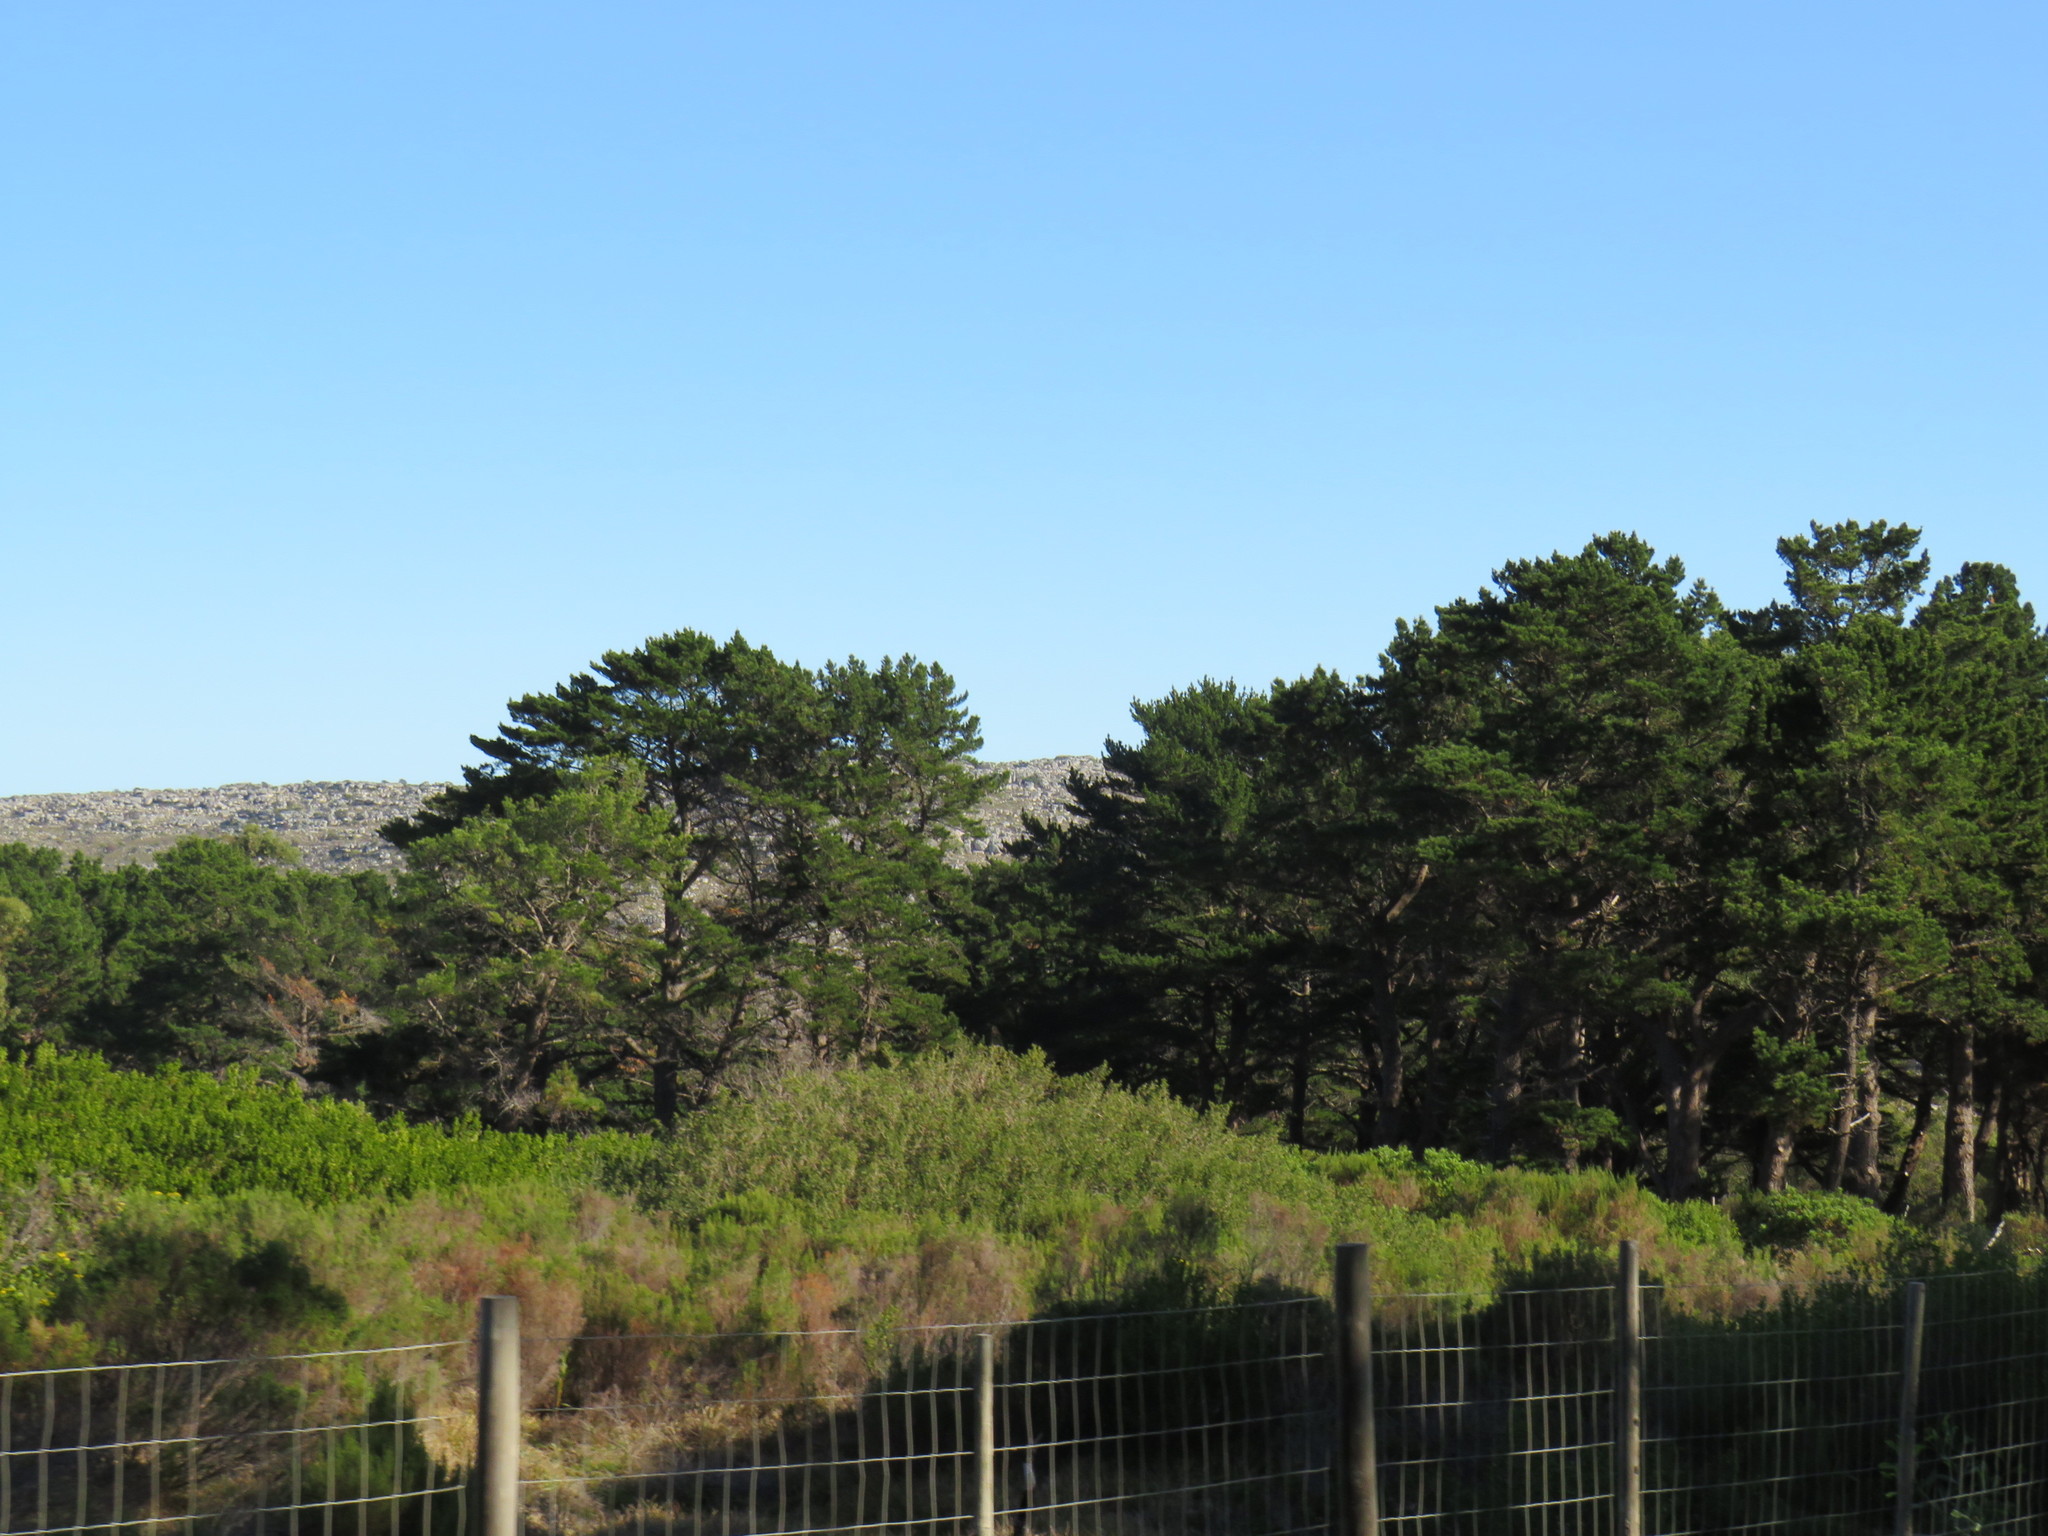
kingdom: Plantae
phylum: Tracheophyta
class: Pinopsida
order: Pinales
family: Pinaceae
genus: Pinus
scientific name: Pinus radiata
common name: Monterey pine
